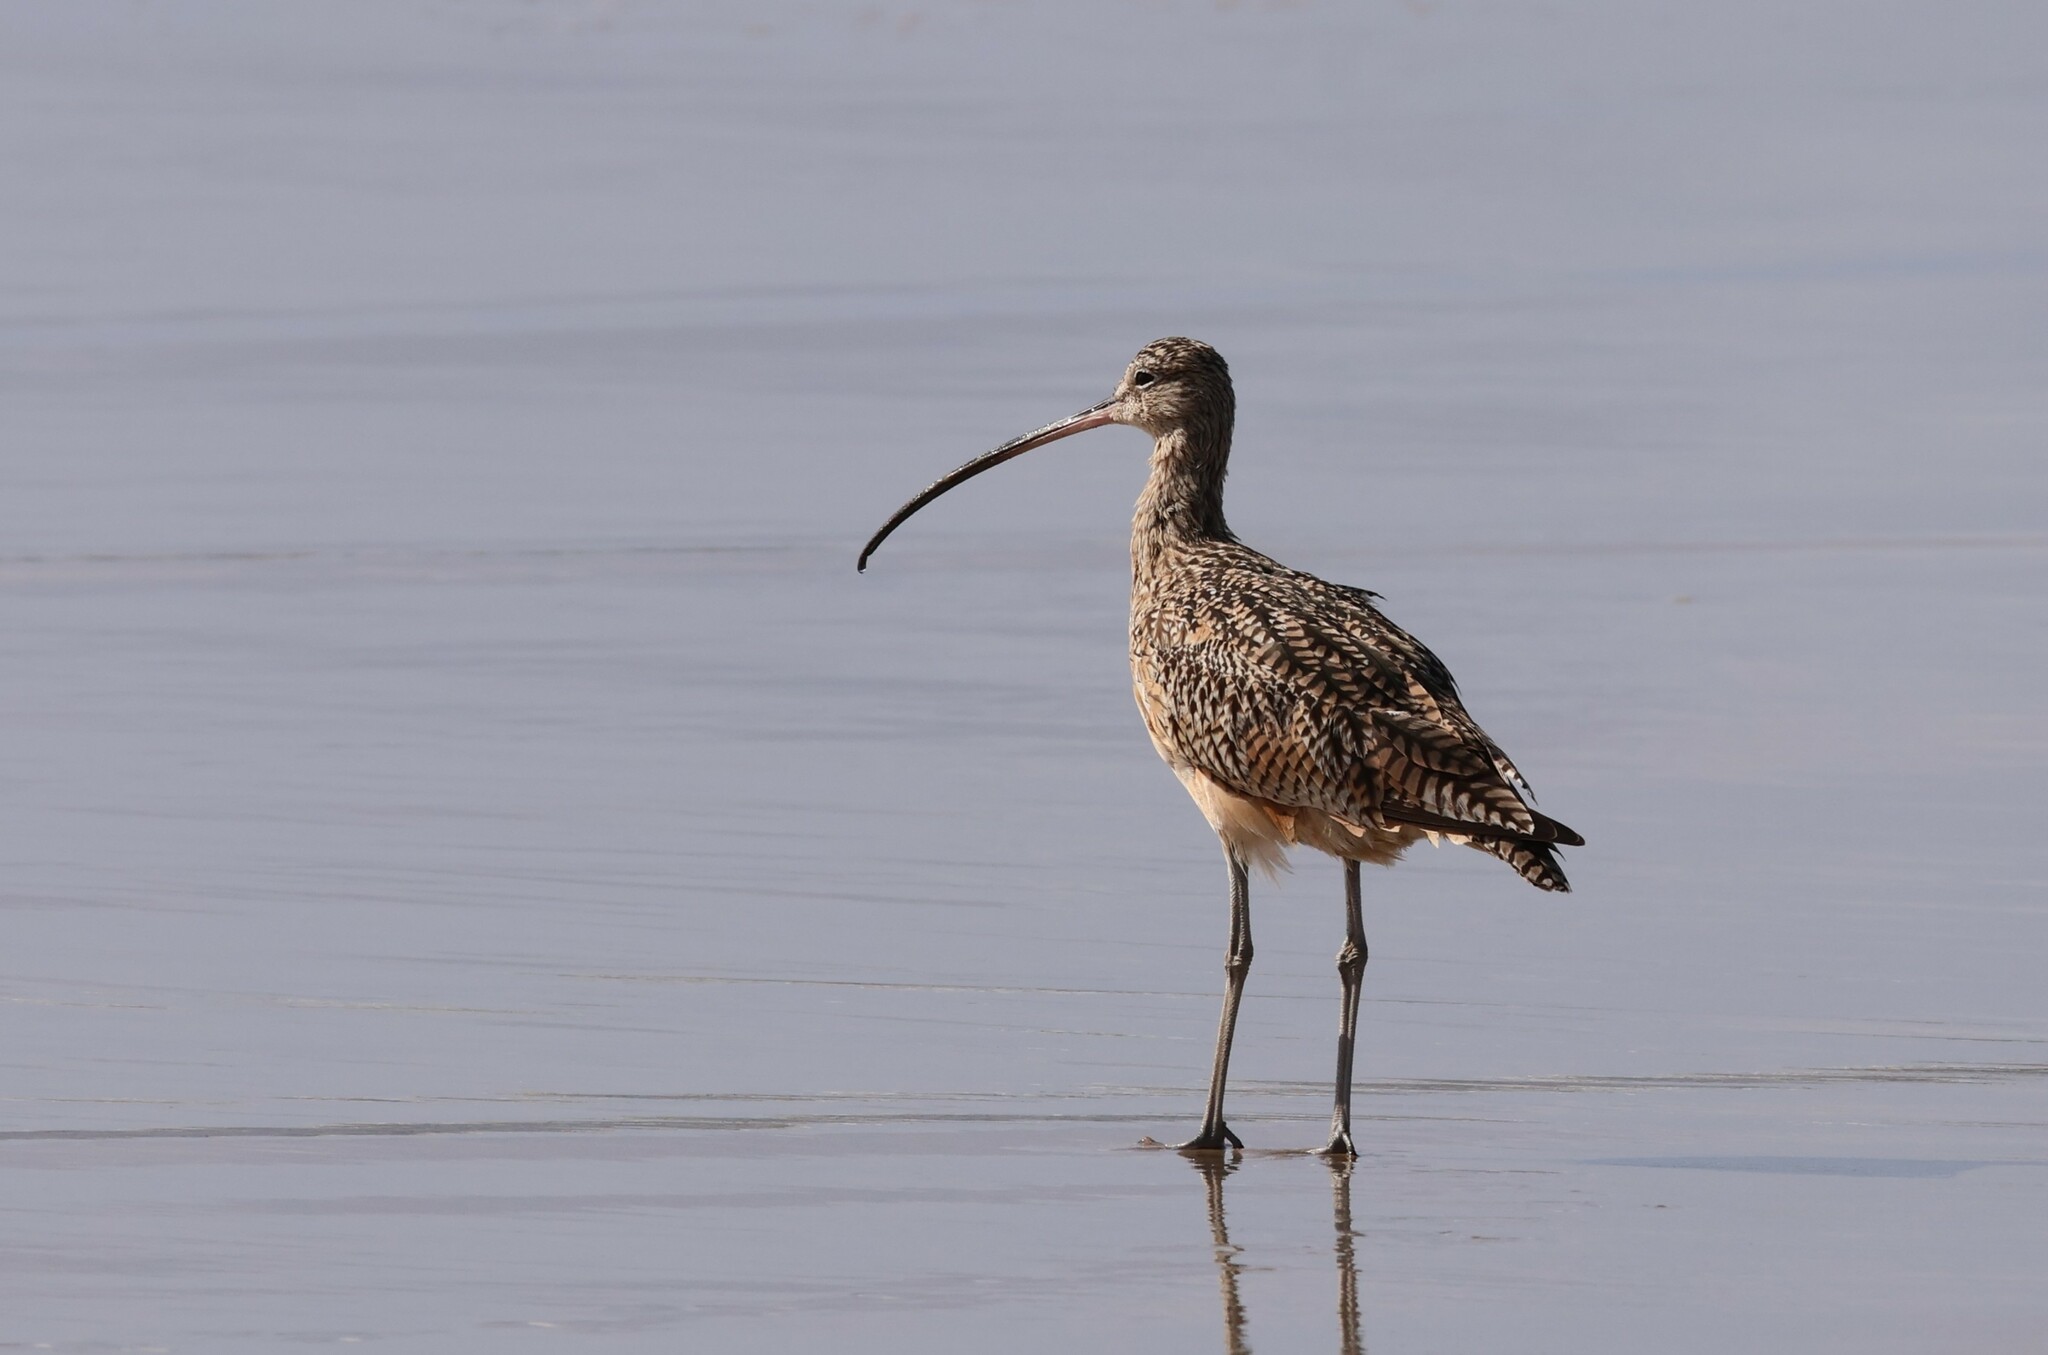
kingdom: Animalia
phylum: Chordata
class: Aves
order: Charadriiformes
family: Scolopacidae
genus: Numenius
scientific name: Numenius americanus
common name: Long-billed curlew
